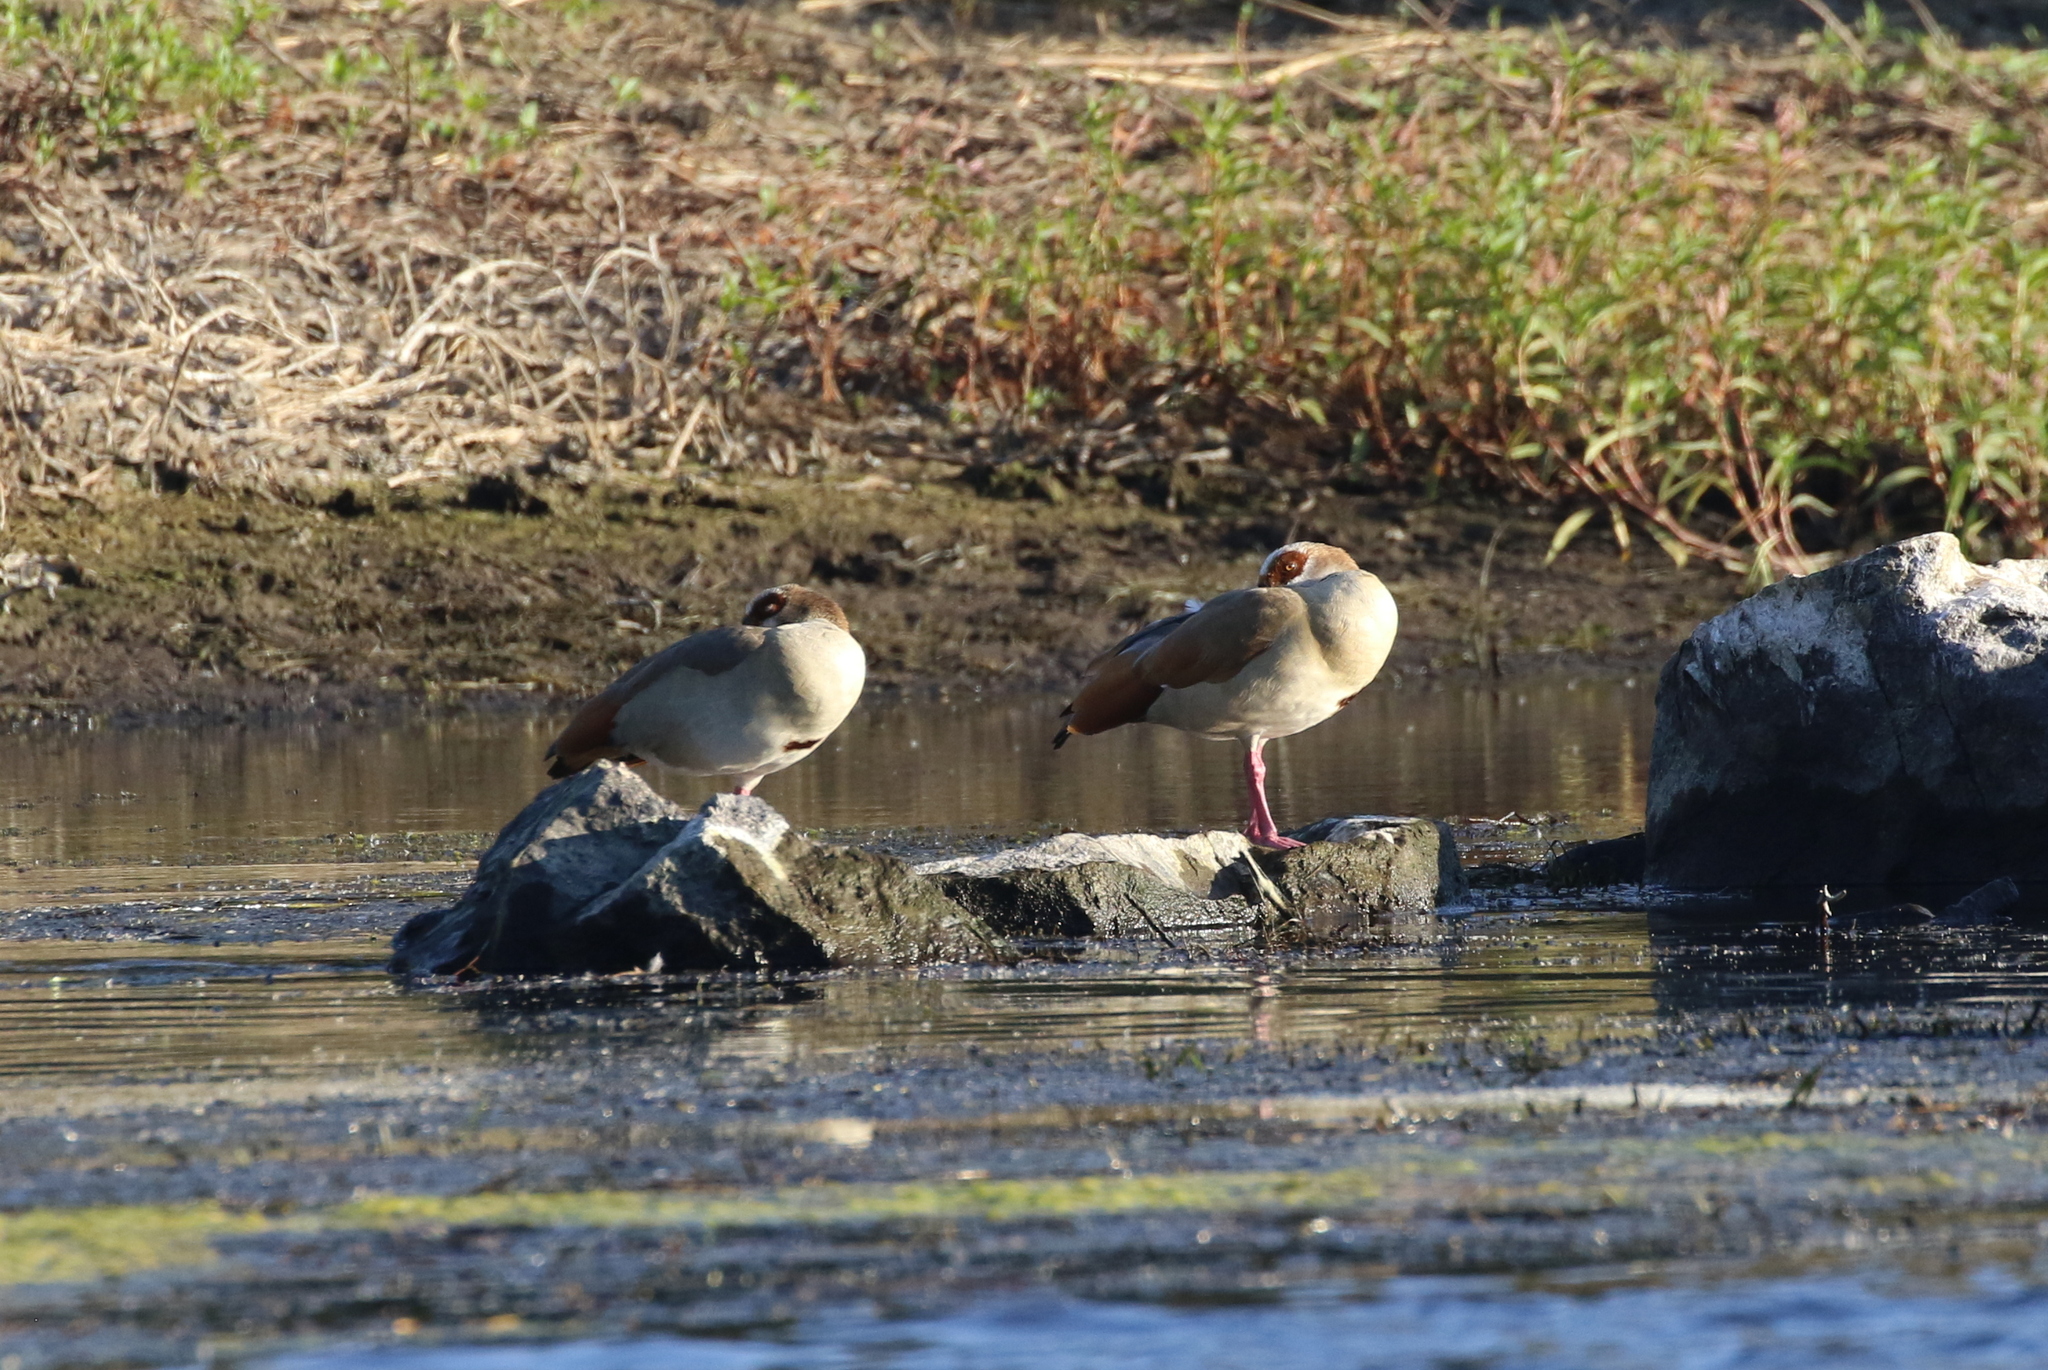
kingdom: Animalia
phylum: Chordata
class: Aves
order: Anseriformes
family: Anatidae
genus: Alopochen
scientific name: Alopochen aegyptiaca
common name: Egyptian goose
